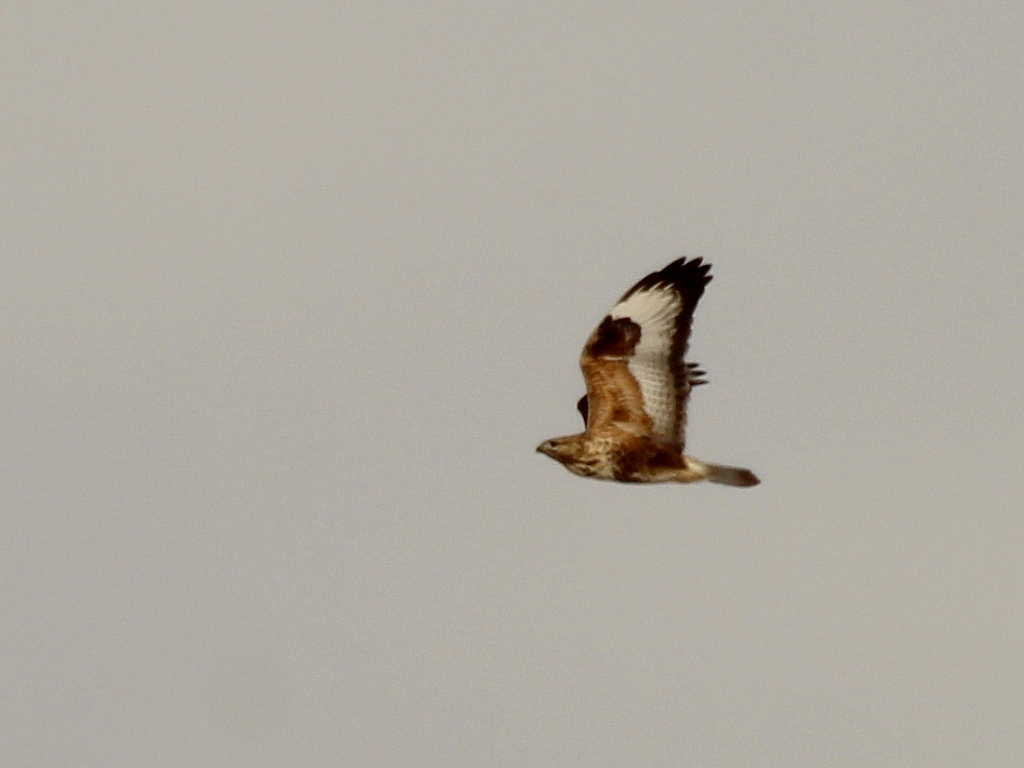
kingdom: Animalia
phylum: Chordata
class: Aves
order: Accipitriformes
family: Accipitridae
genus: Buteo
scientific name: Buteo hemilasius
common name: Upland buzzard
